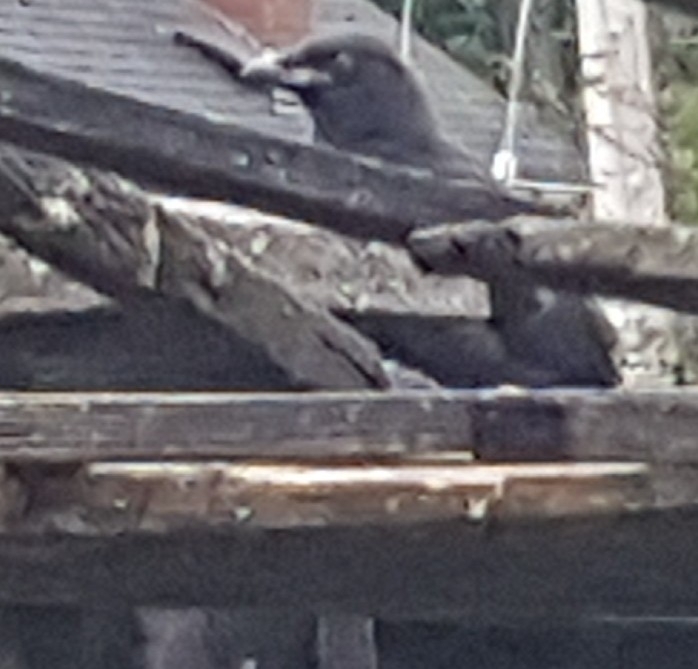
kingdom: Animalia
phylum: Chordata
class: Aves
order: Passeriformes
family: Corvidae
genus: Corvus
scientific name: Corvus brachyrhynchos
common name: American crow
